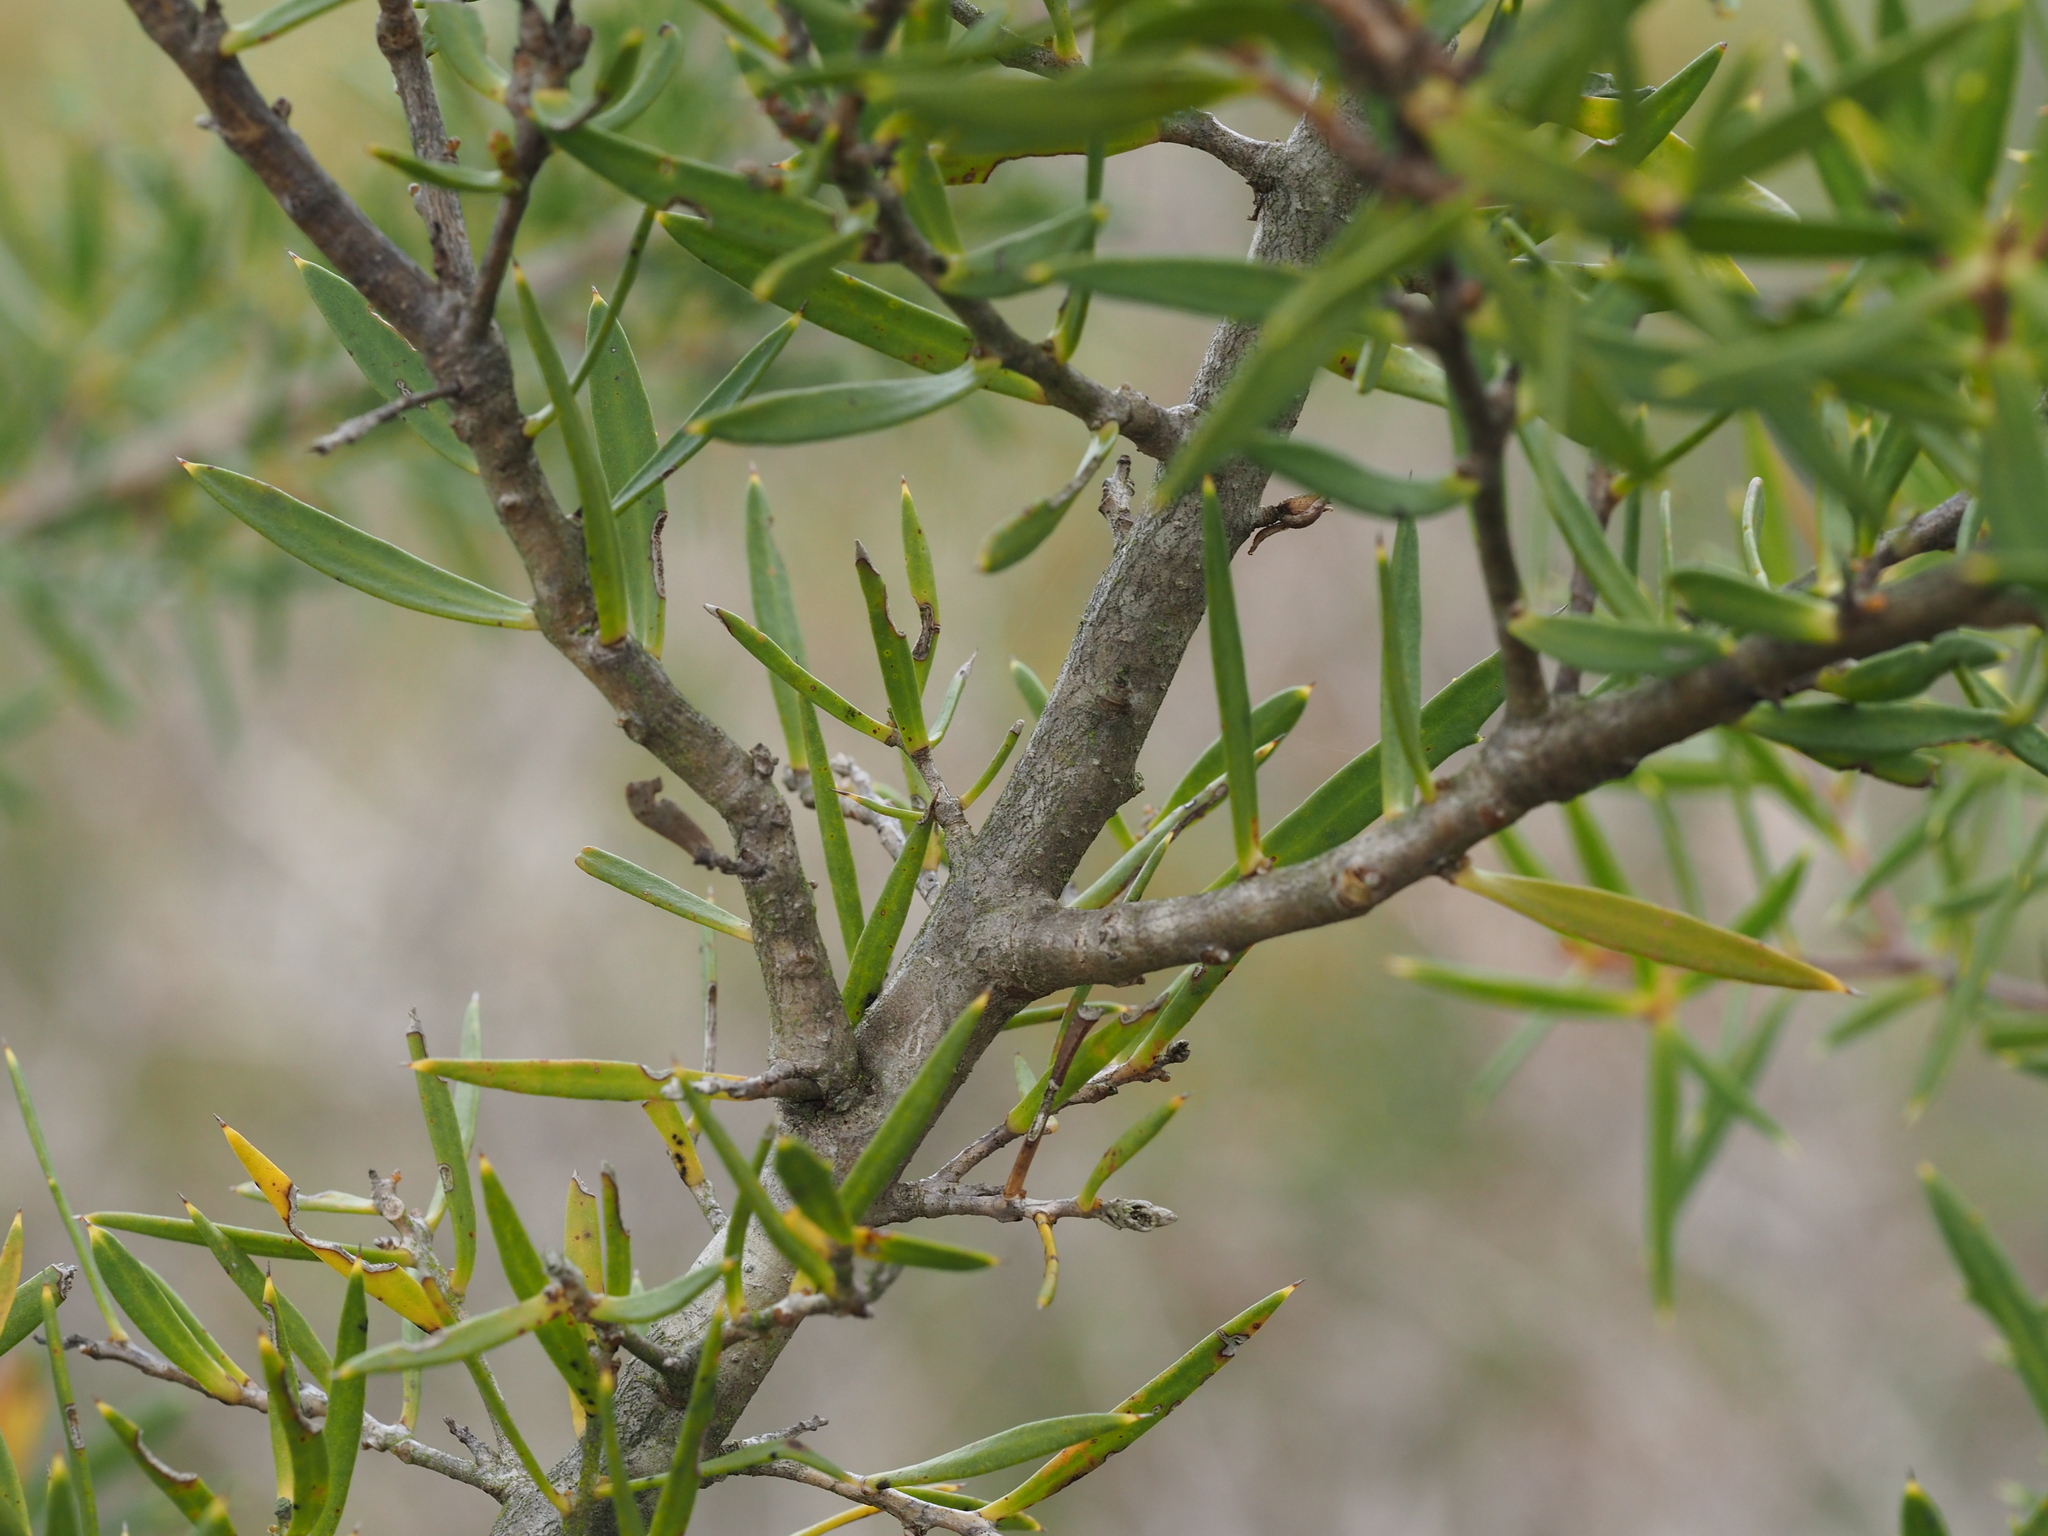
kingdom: Plantae
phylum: Tracheophyta
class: Magnoliopsida
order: Proteales
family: Proteaceae
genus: Hakea
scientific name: Hakea linearis
